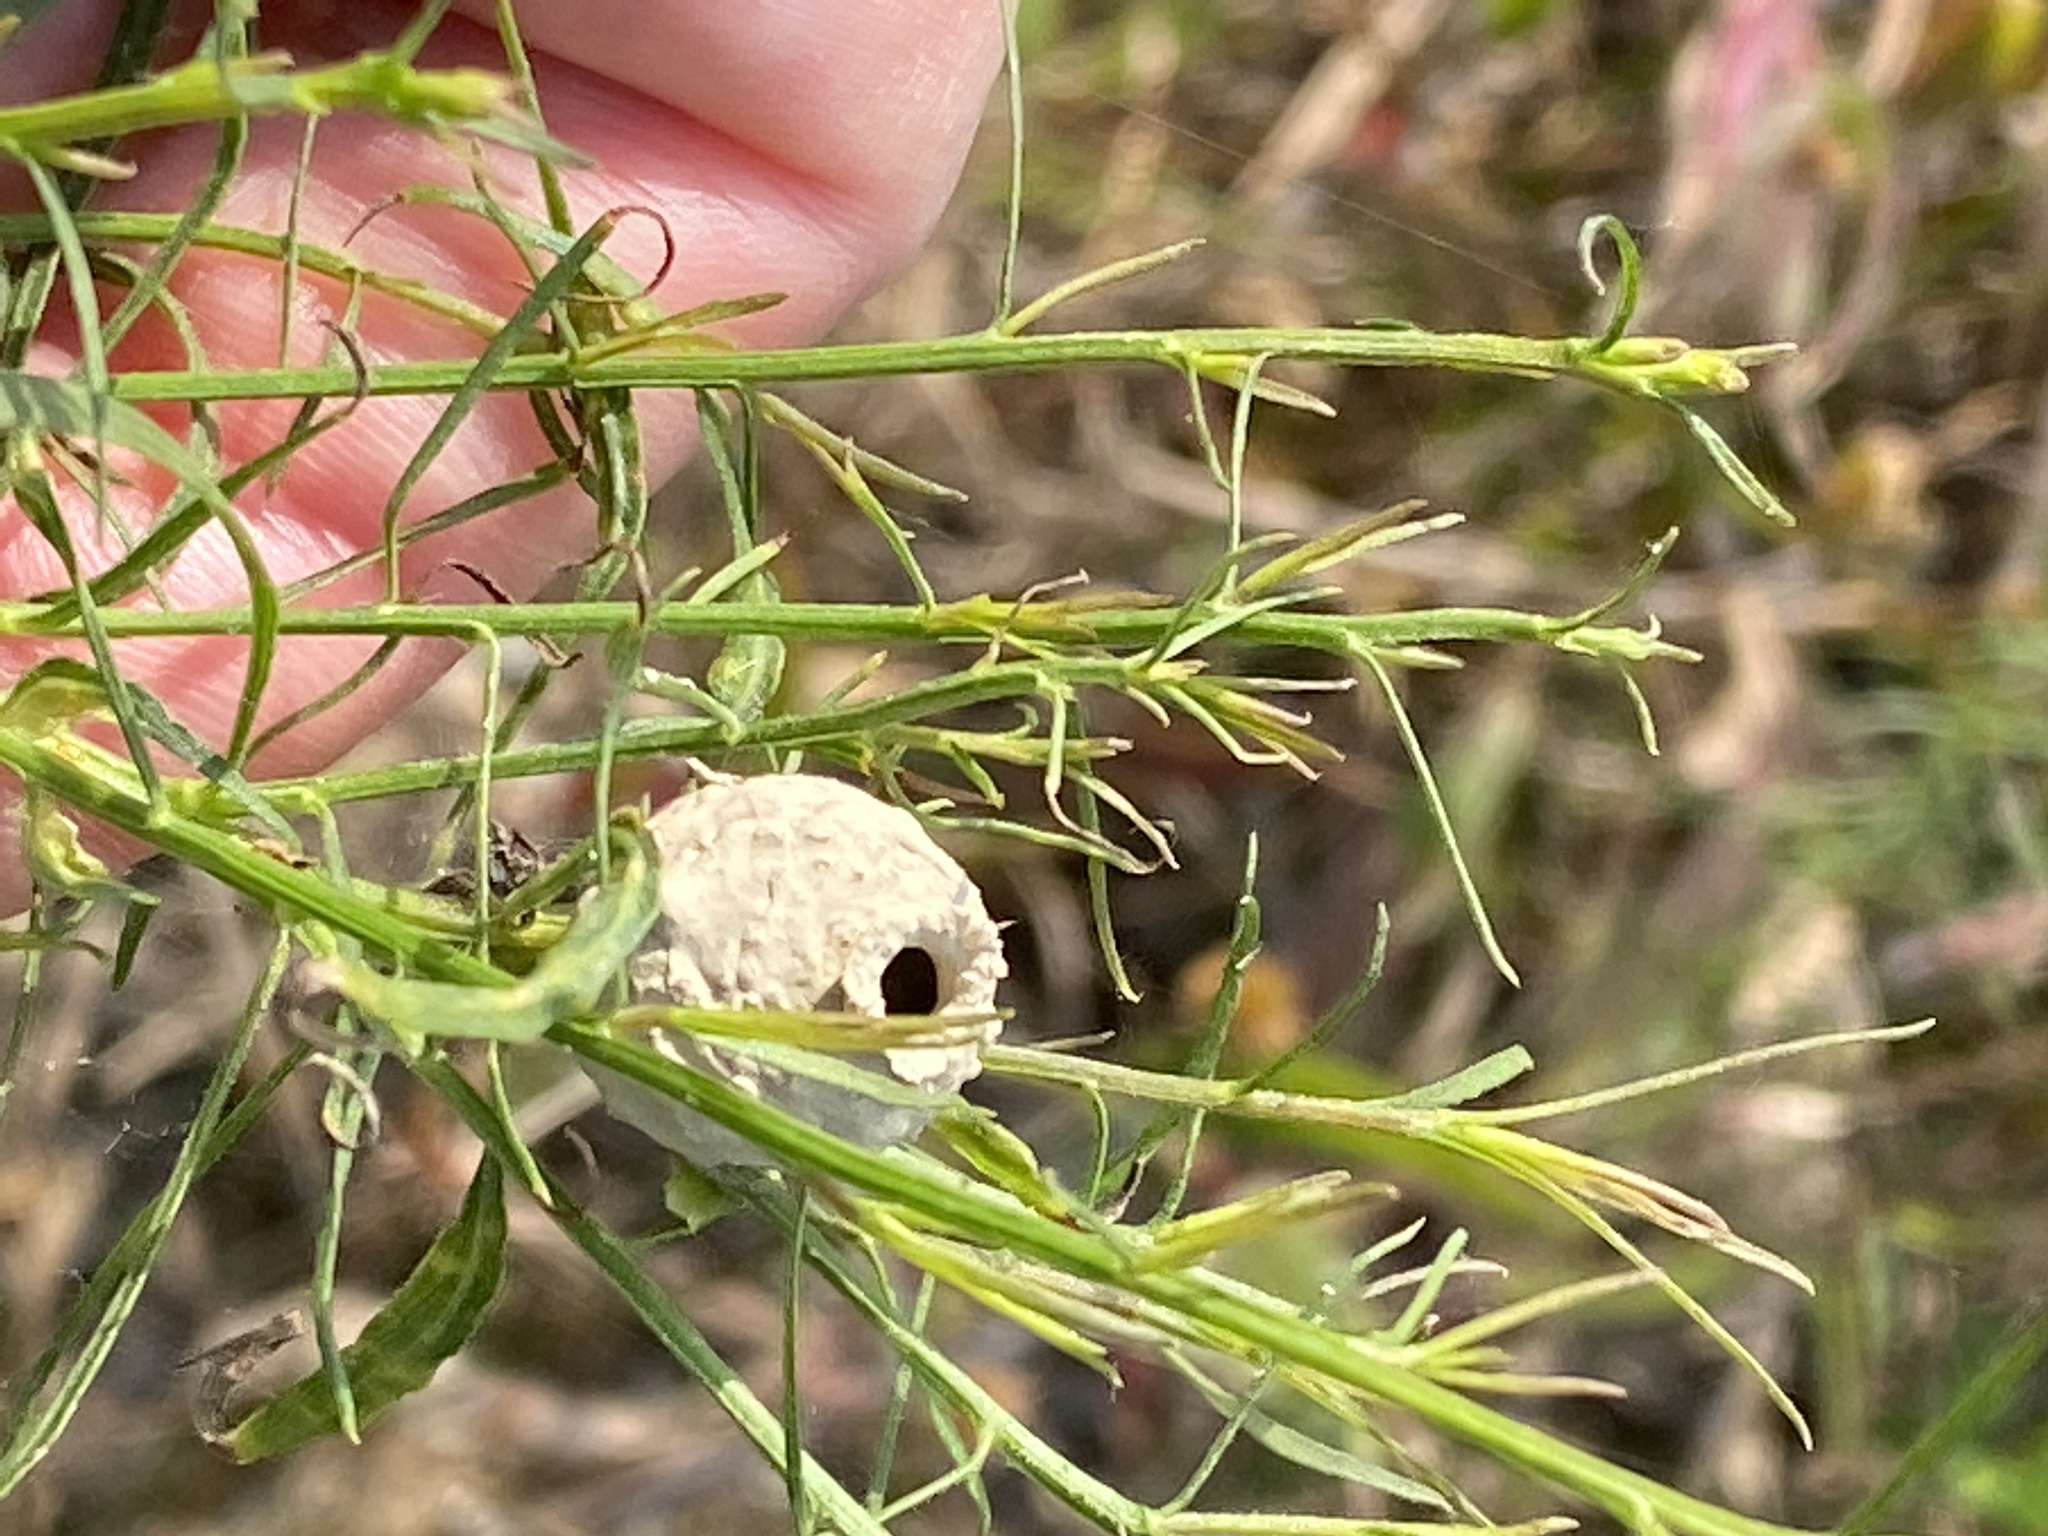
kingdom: Animalia
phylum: Arthropoda
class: Insecta
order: Hymenoptera
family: Vespidae
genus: Eumenes
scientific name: Eumenes
